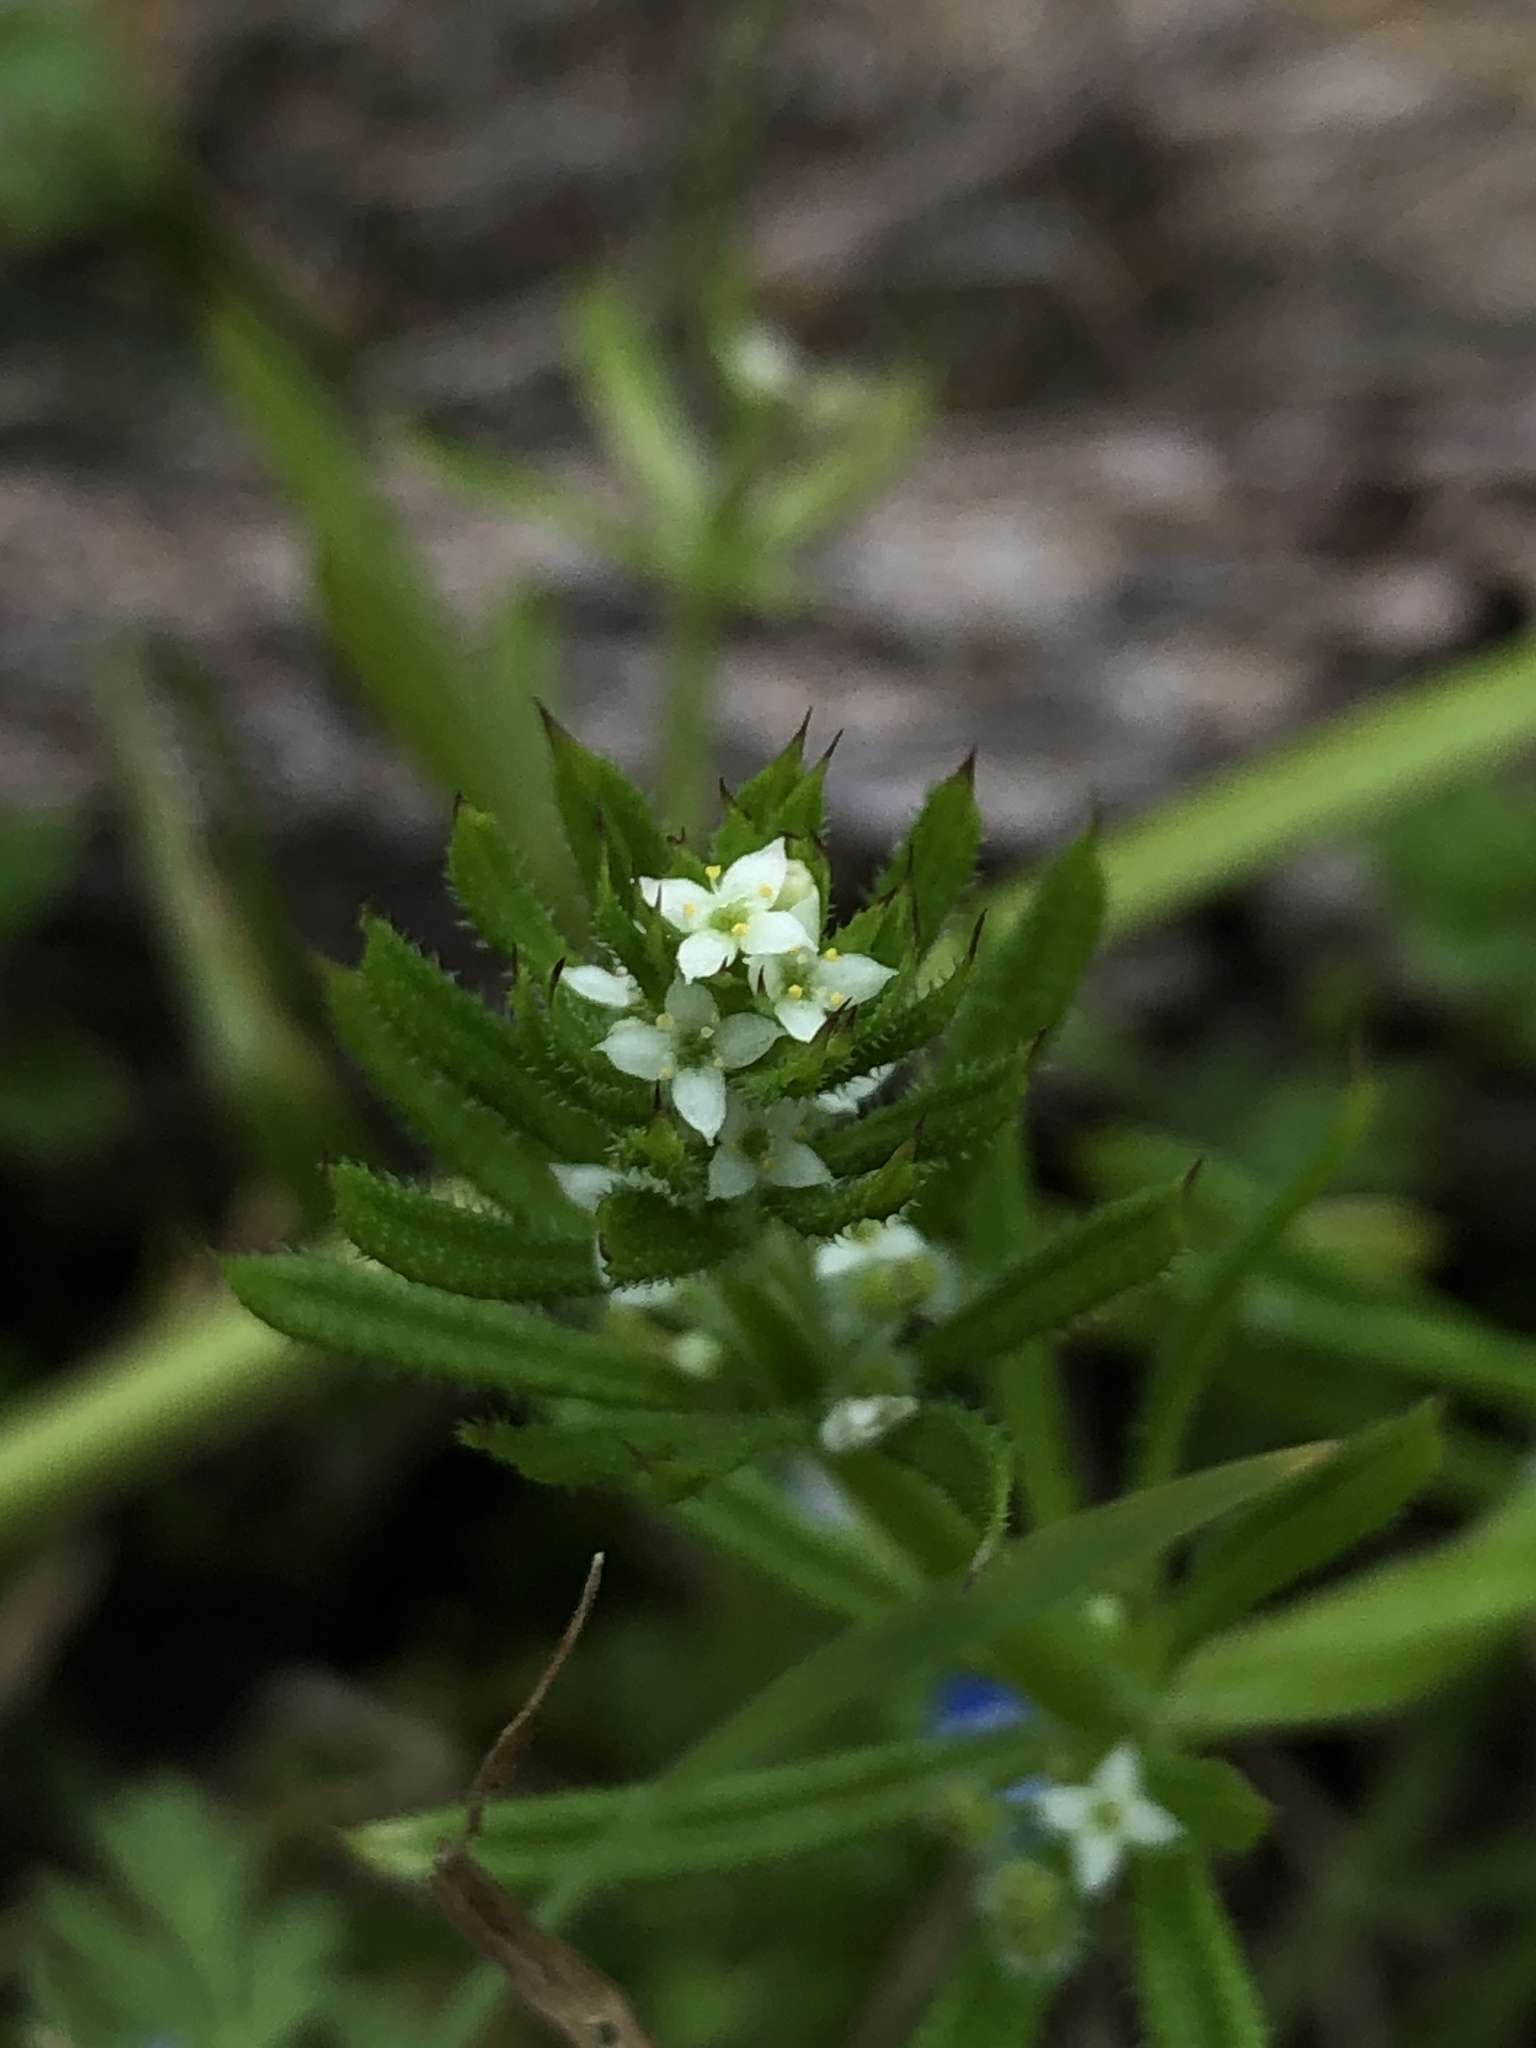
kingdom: Plantae
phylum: Tracheophyta
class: Magnoliopsida
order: Gentianales
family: Rubiaceae
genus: Galium
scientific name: Galium aparine
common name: Cleavers
